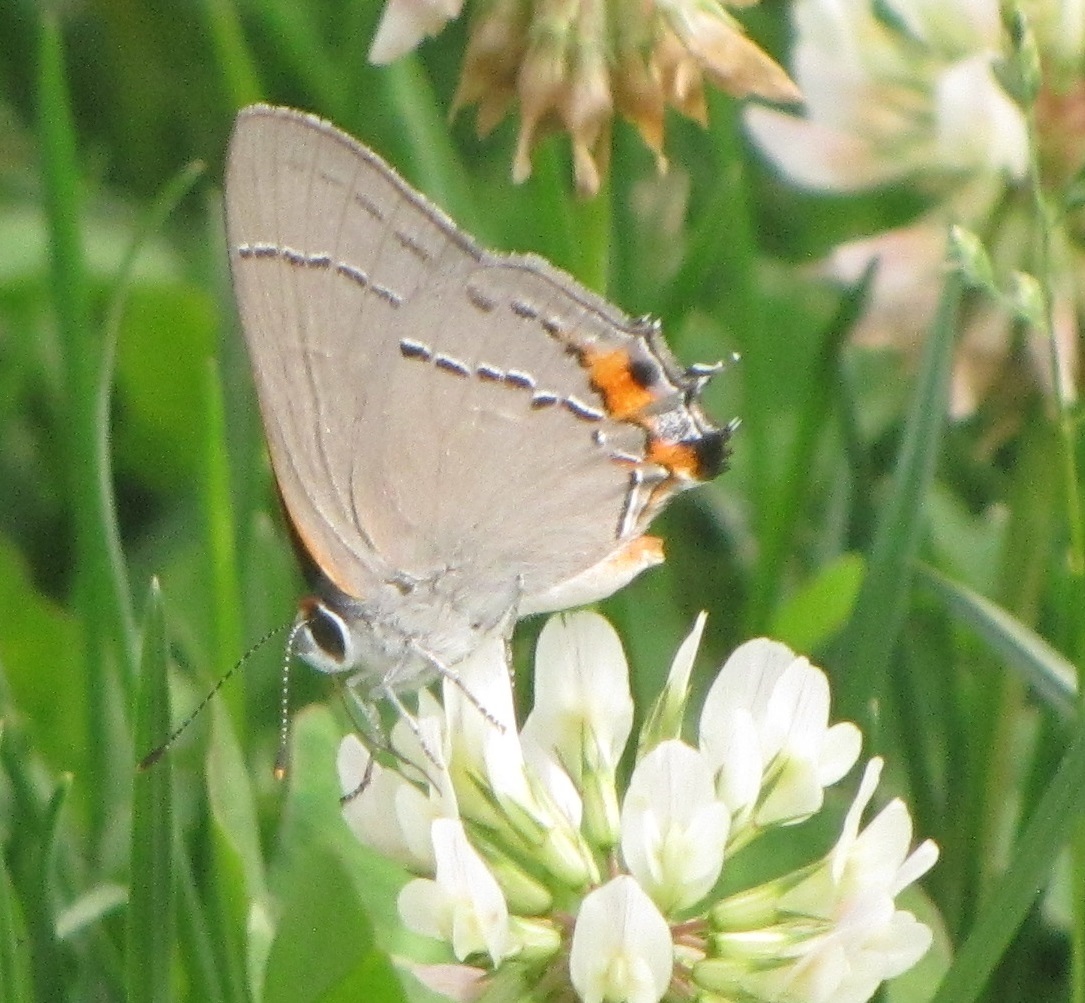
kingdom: Animalia
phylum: Arthropoda
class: Insecta
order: Lepidoptera
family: Lycaenidae
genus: Strymon
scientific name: Strymon melinus
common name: Gray hairstreak
